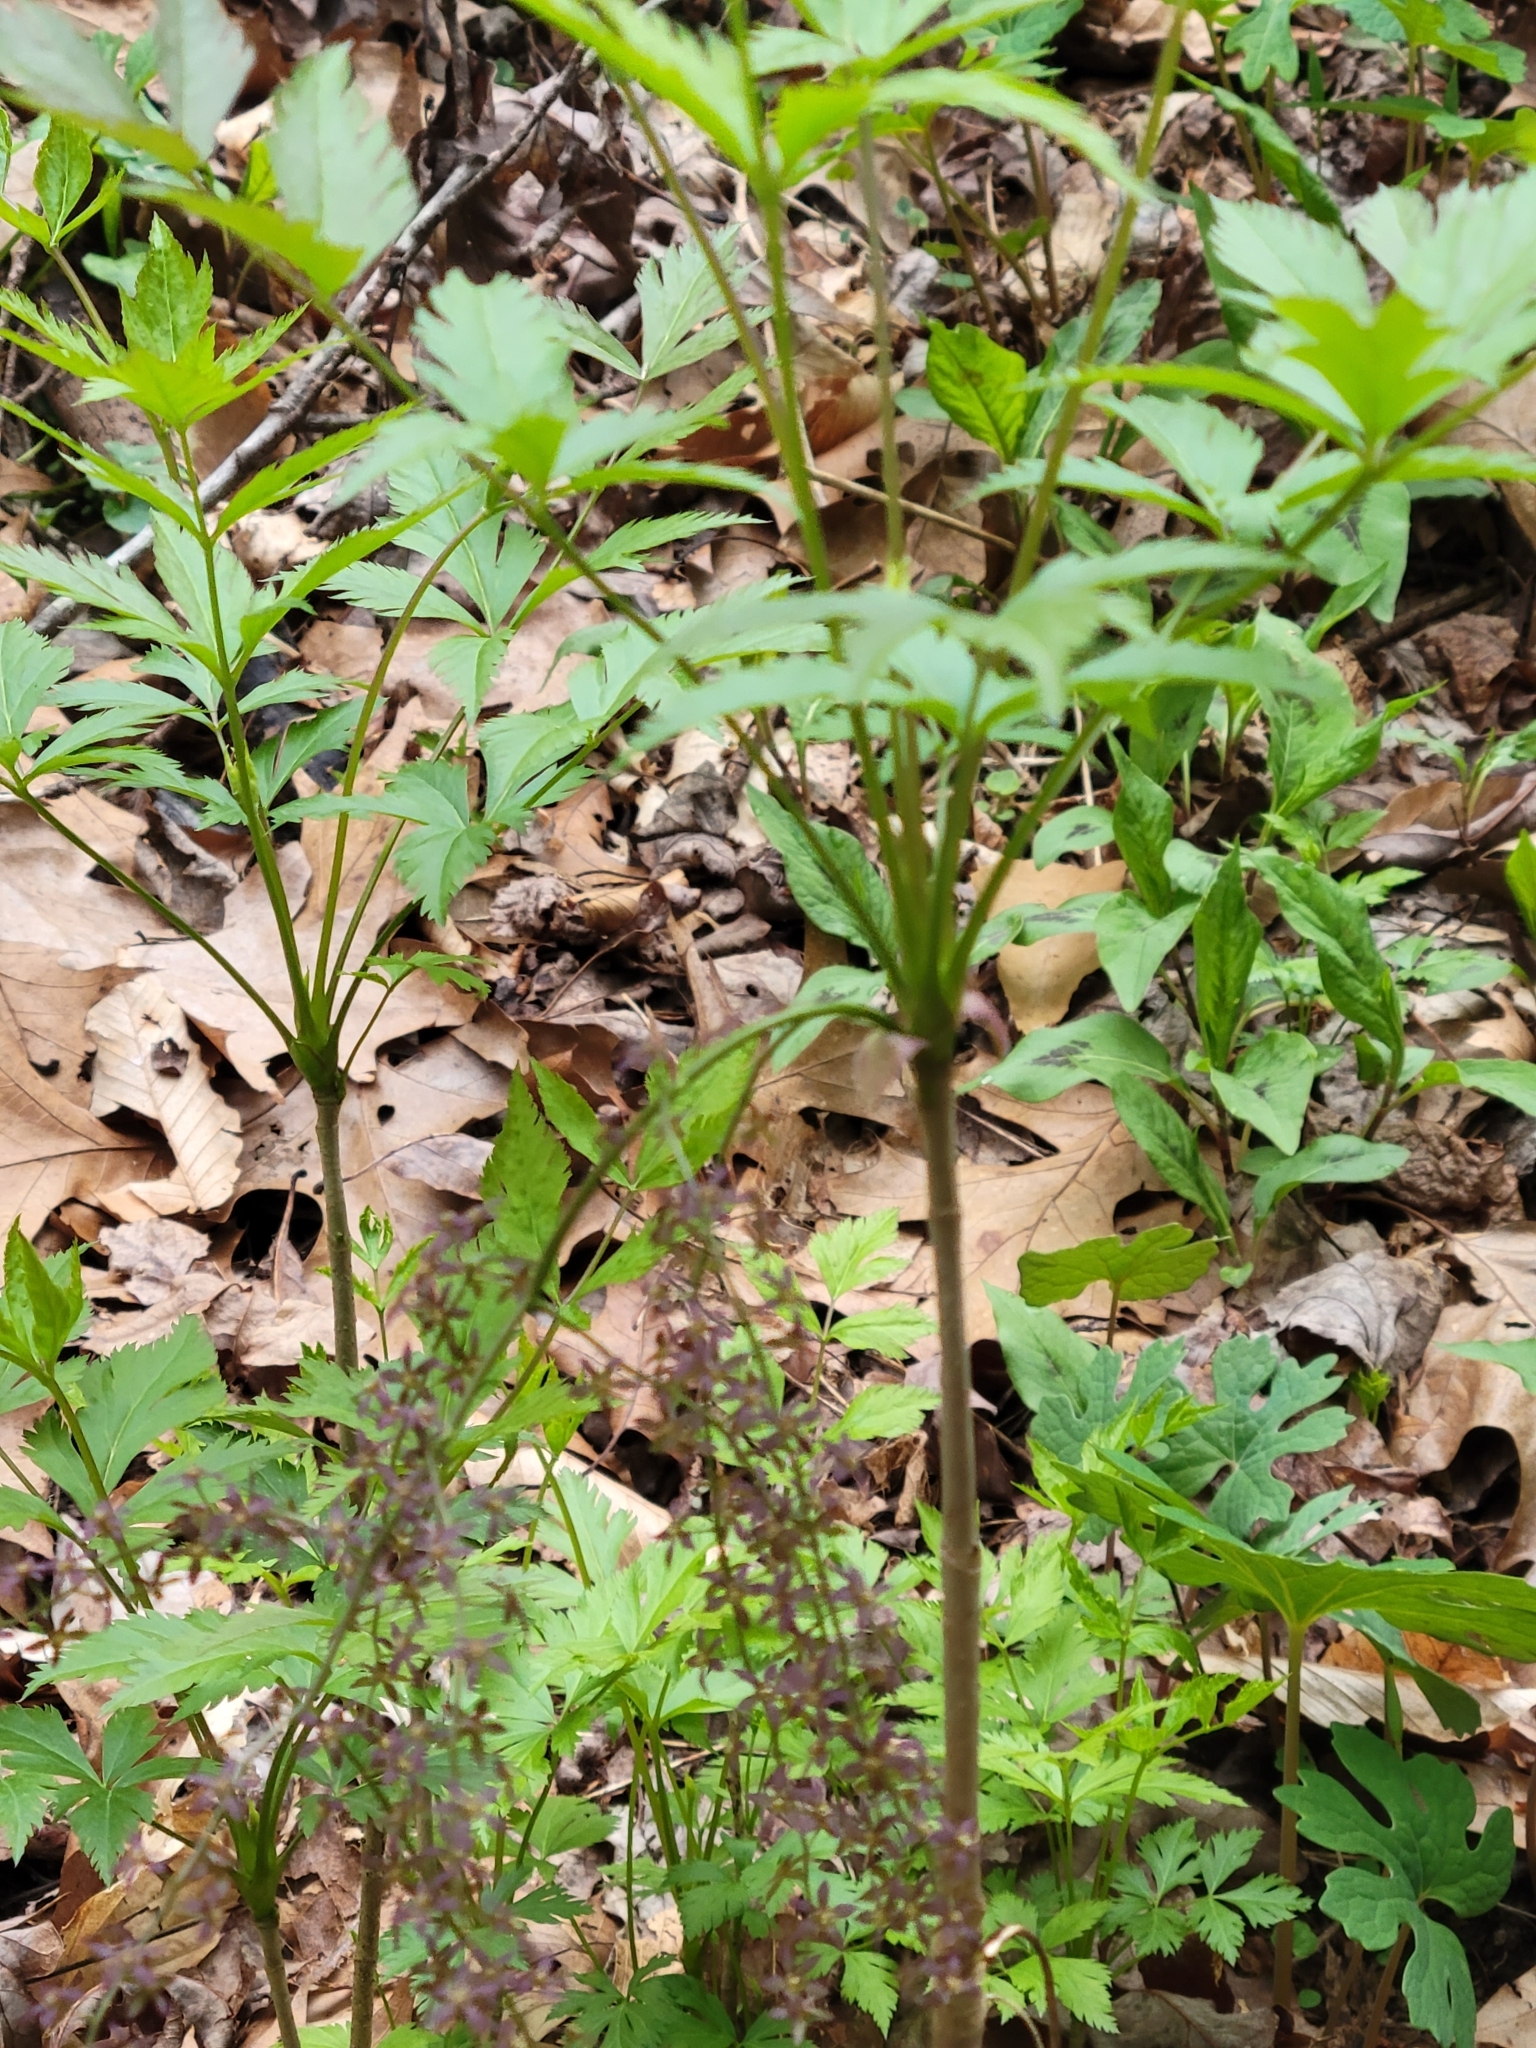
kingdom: Plantae
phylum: Tracheophyta
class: Magnoliopsida
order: Ranunculales
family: Ranunculaceae
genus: Xanthorhiza
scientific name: Xanthorhiza simplicissima
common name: Yellowroot
